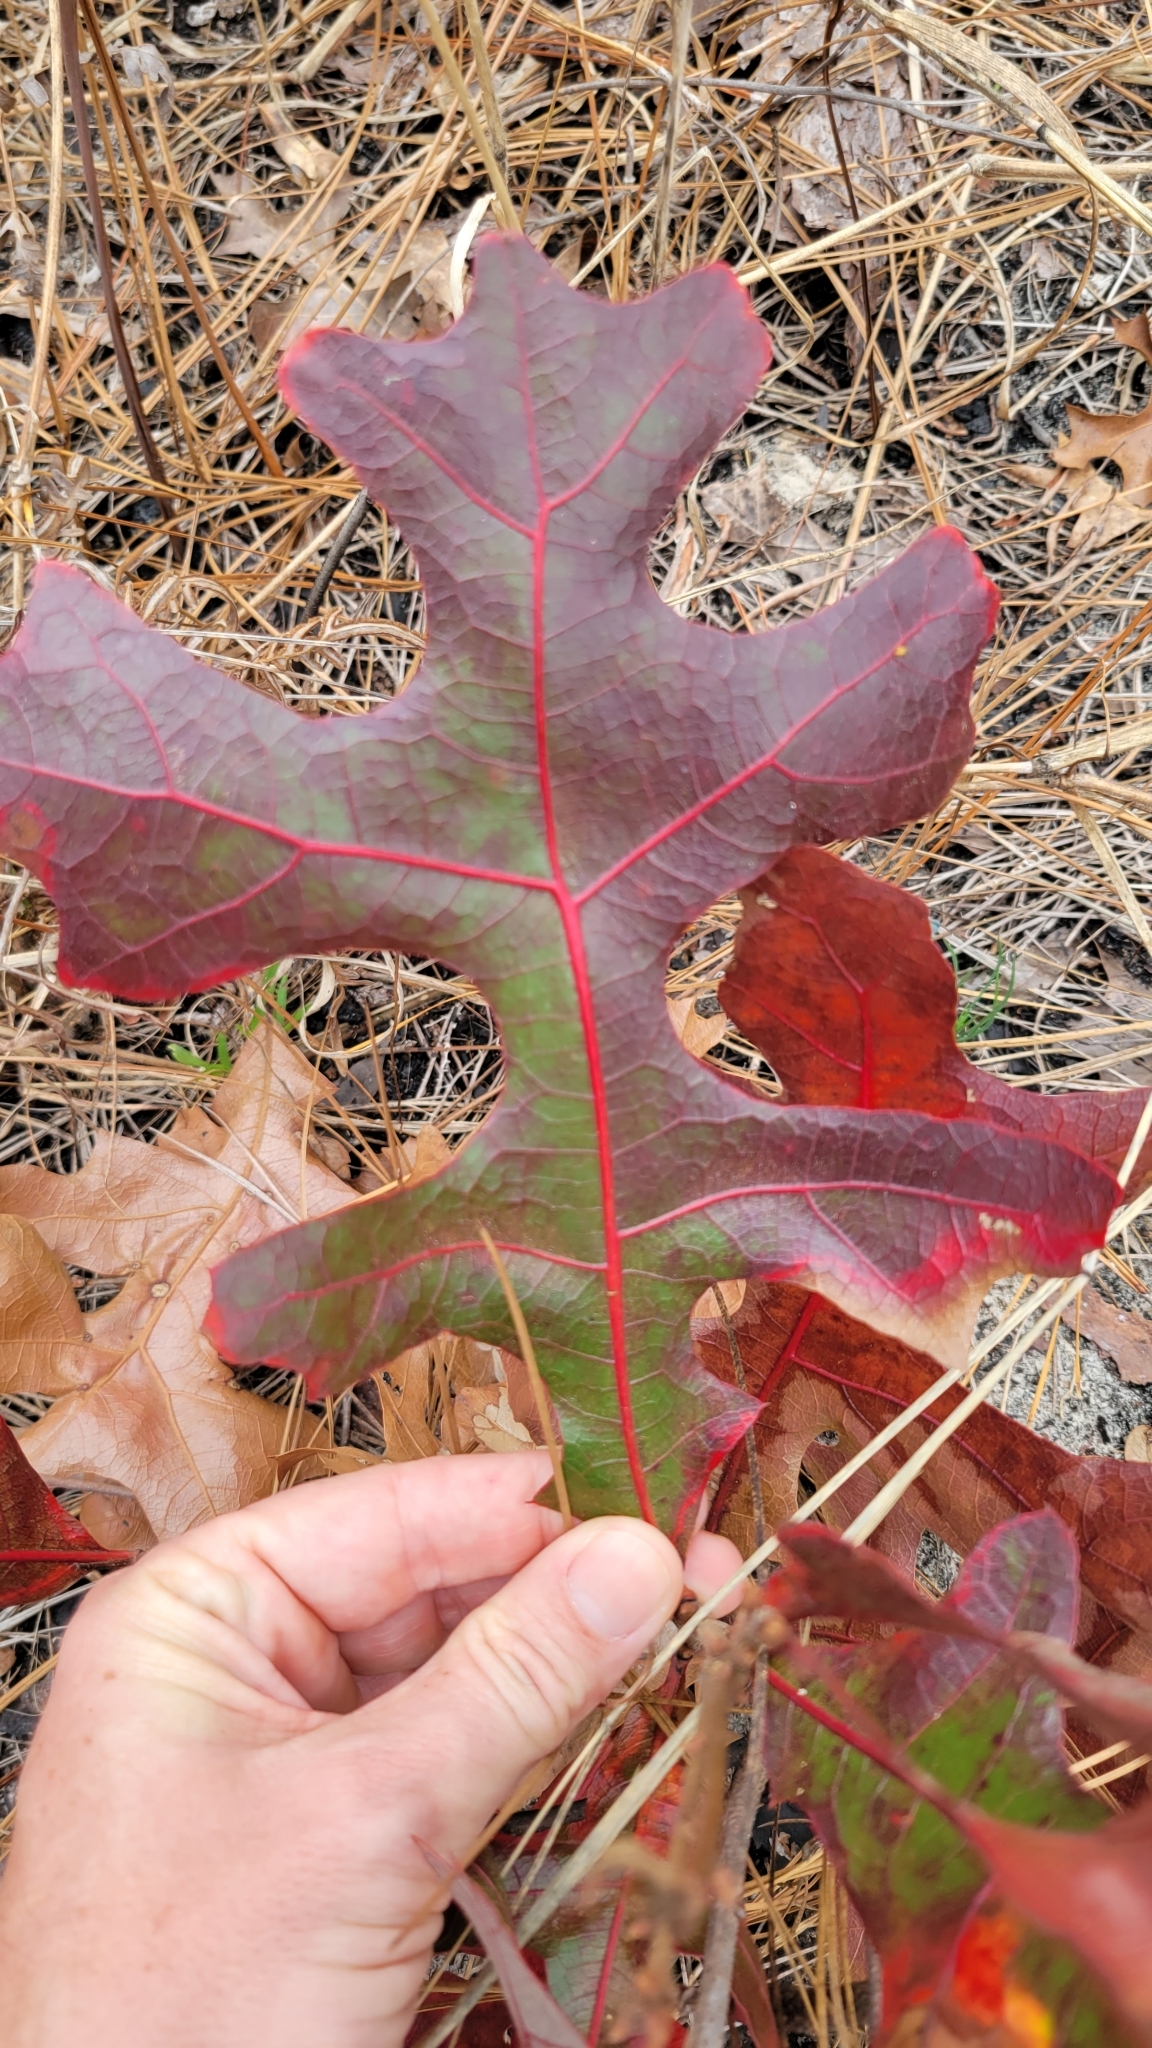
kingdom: Plantae
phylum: Tracheophyta
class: Magnoliopsida
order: Fagales
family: Fagaceae
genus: Quercus
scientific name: Quercus laevis
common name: Turkey oak
